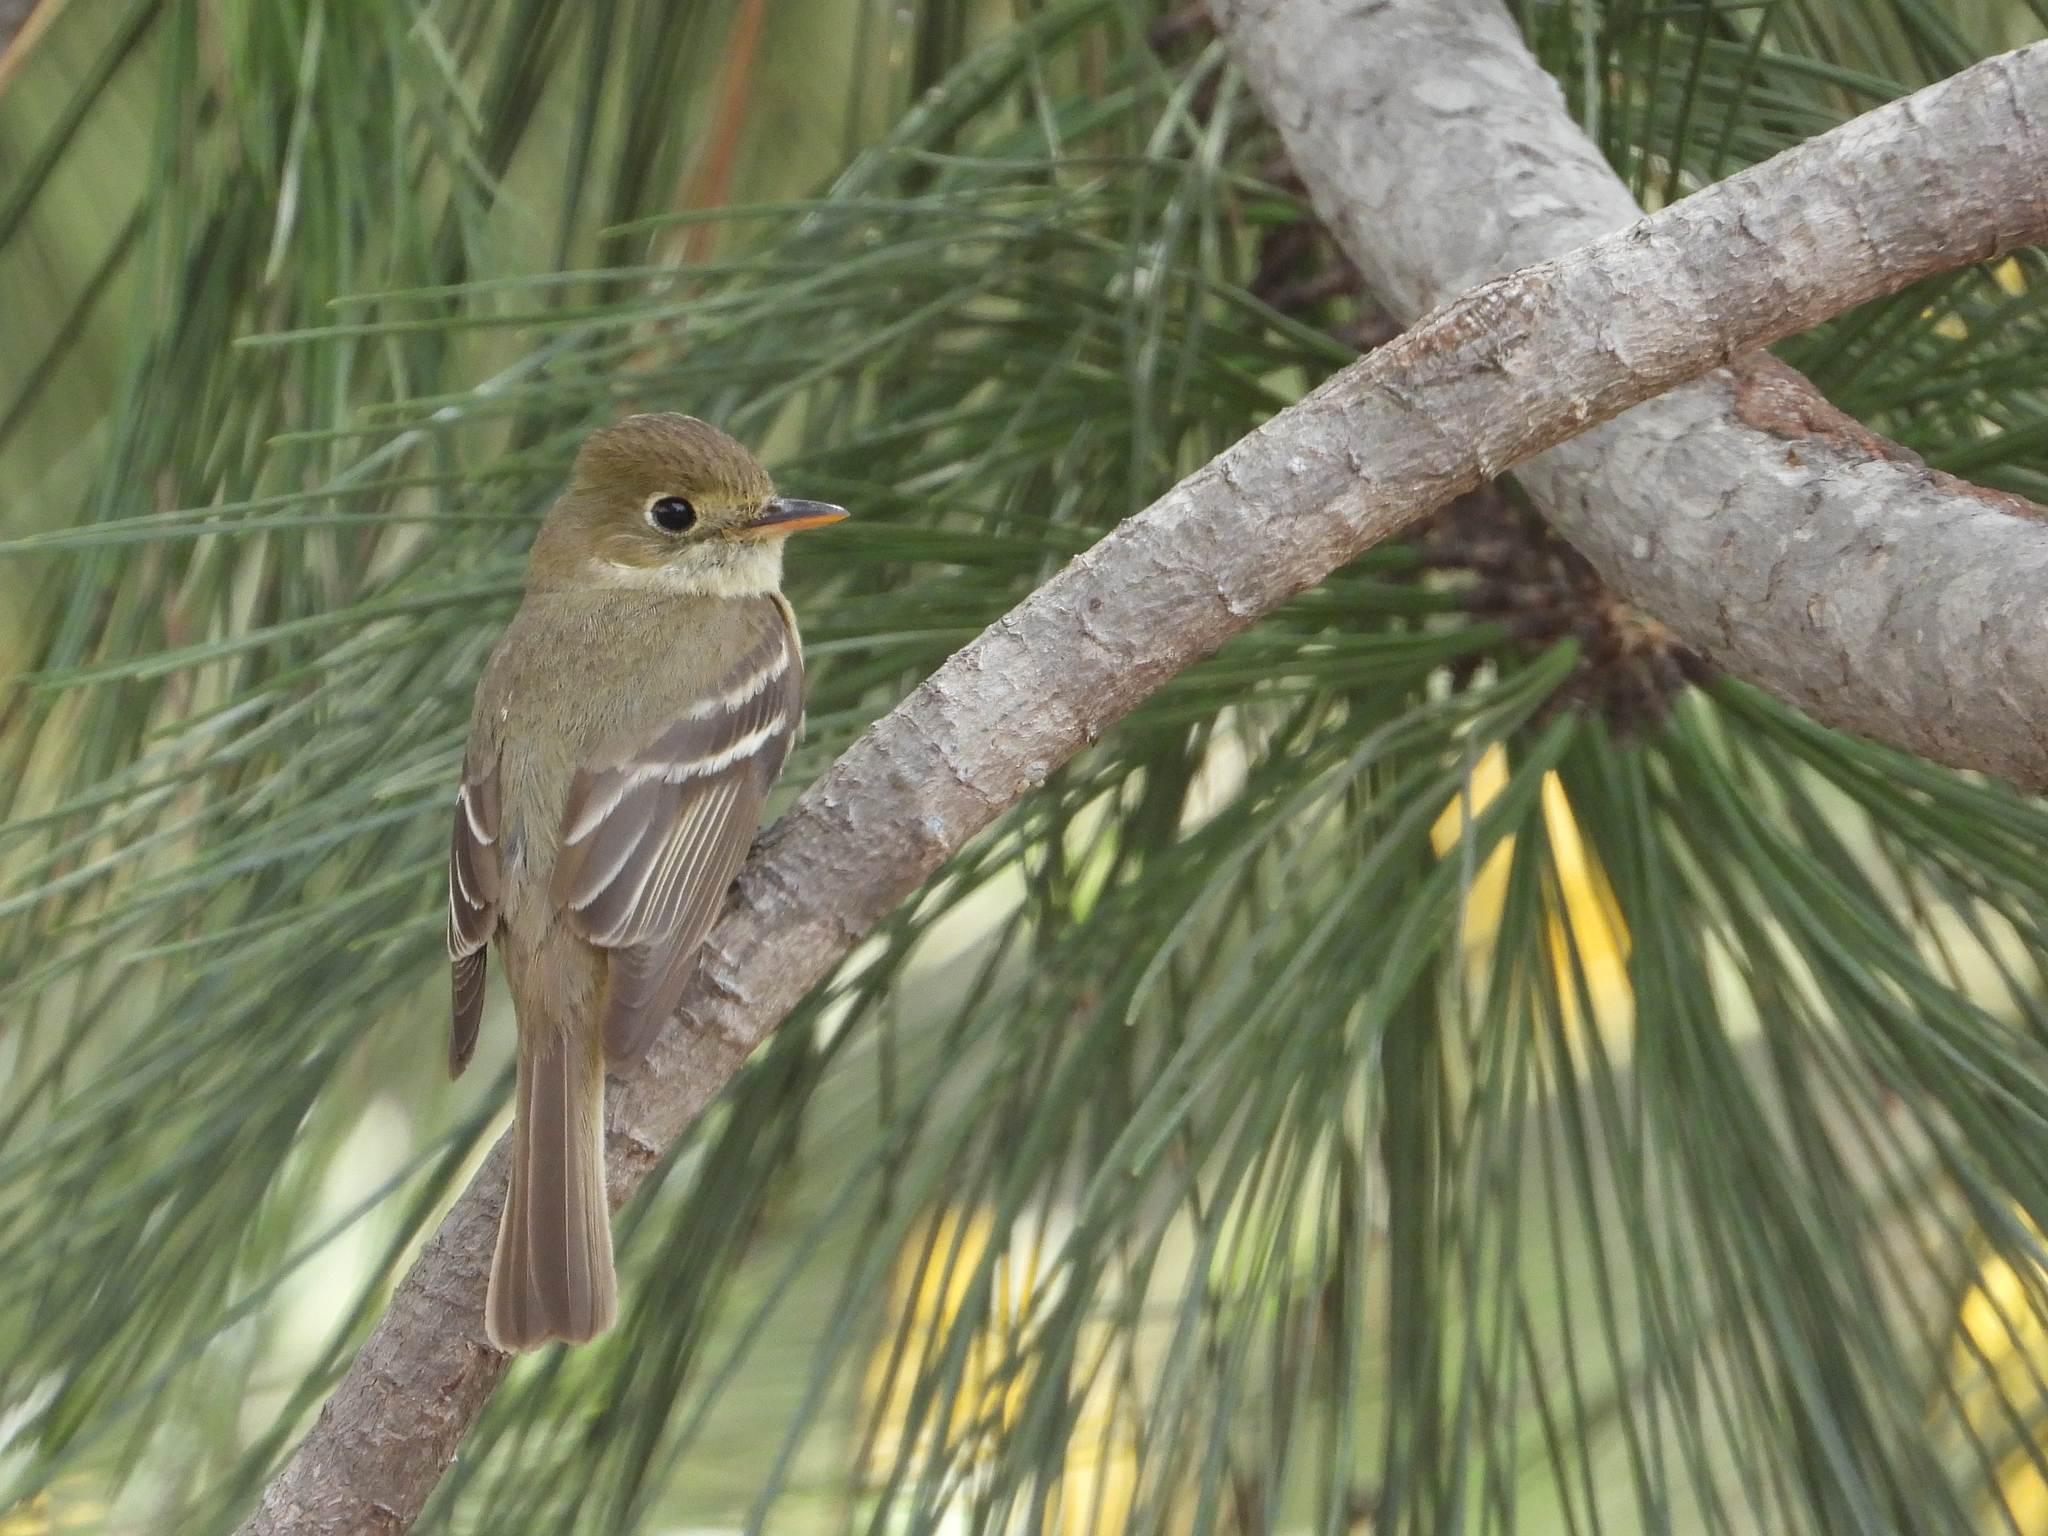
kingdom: Animalia
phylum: Chordata
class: Aves
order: Passeriformes
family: Tyrannidae
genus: Empidonax
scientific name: Empidonax difficilis
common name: Pacific-slope flycatcher
